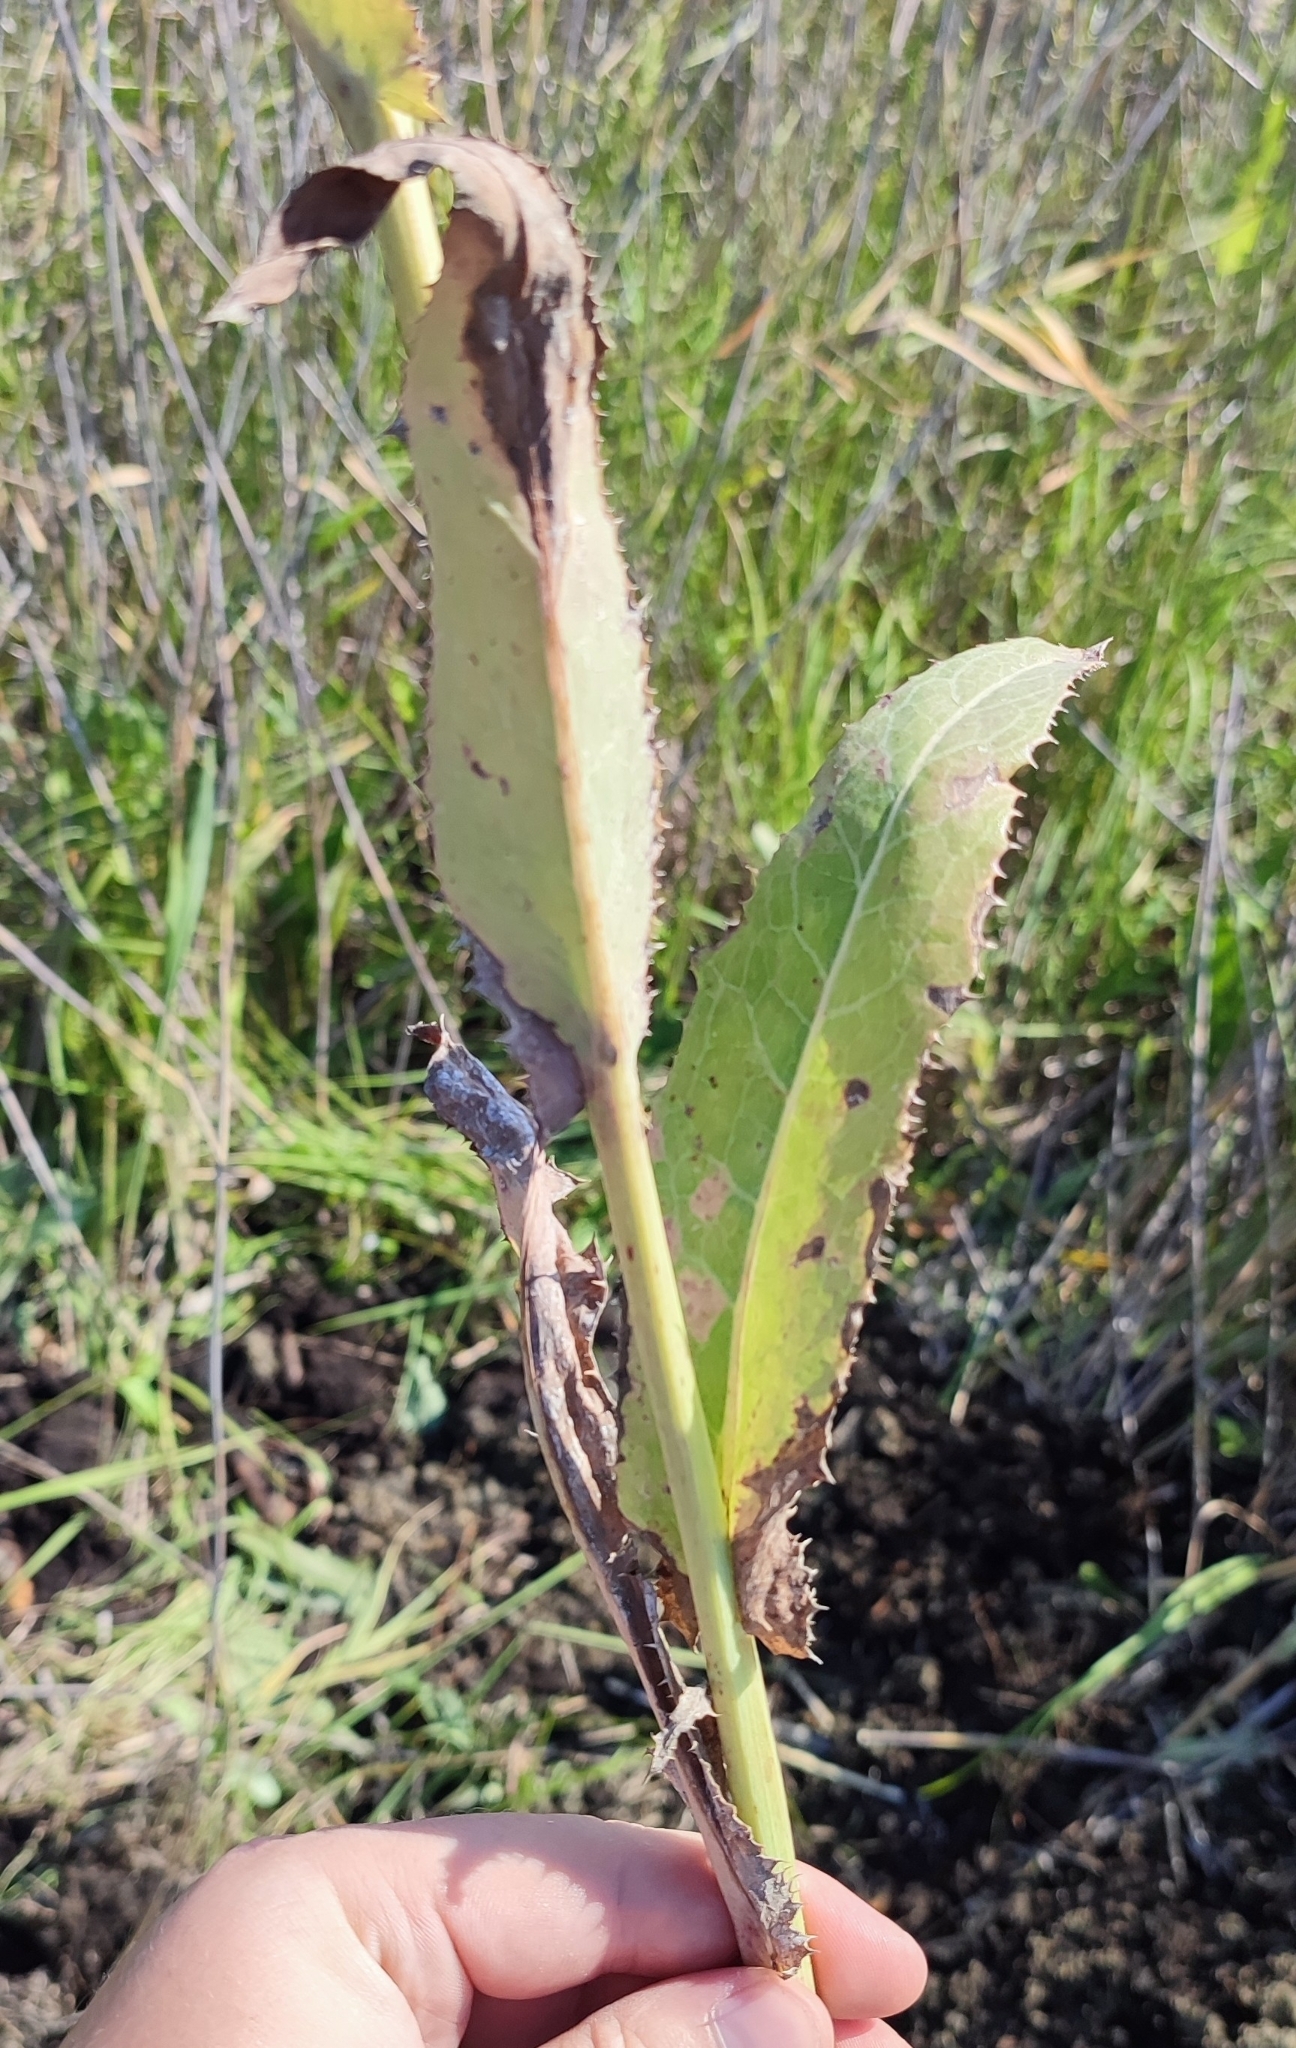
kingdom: Plantae
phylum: Tracheophyta
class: Magnoliopsida
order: Asterales
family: Asteraceae
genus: Sonchus
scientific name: Sonchus arvensis
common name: Perennial sow-thistle
